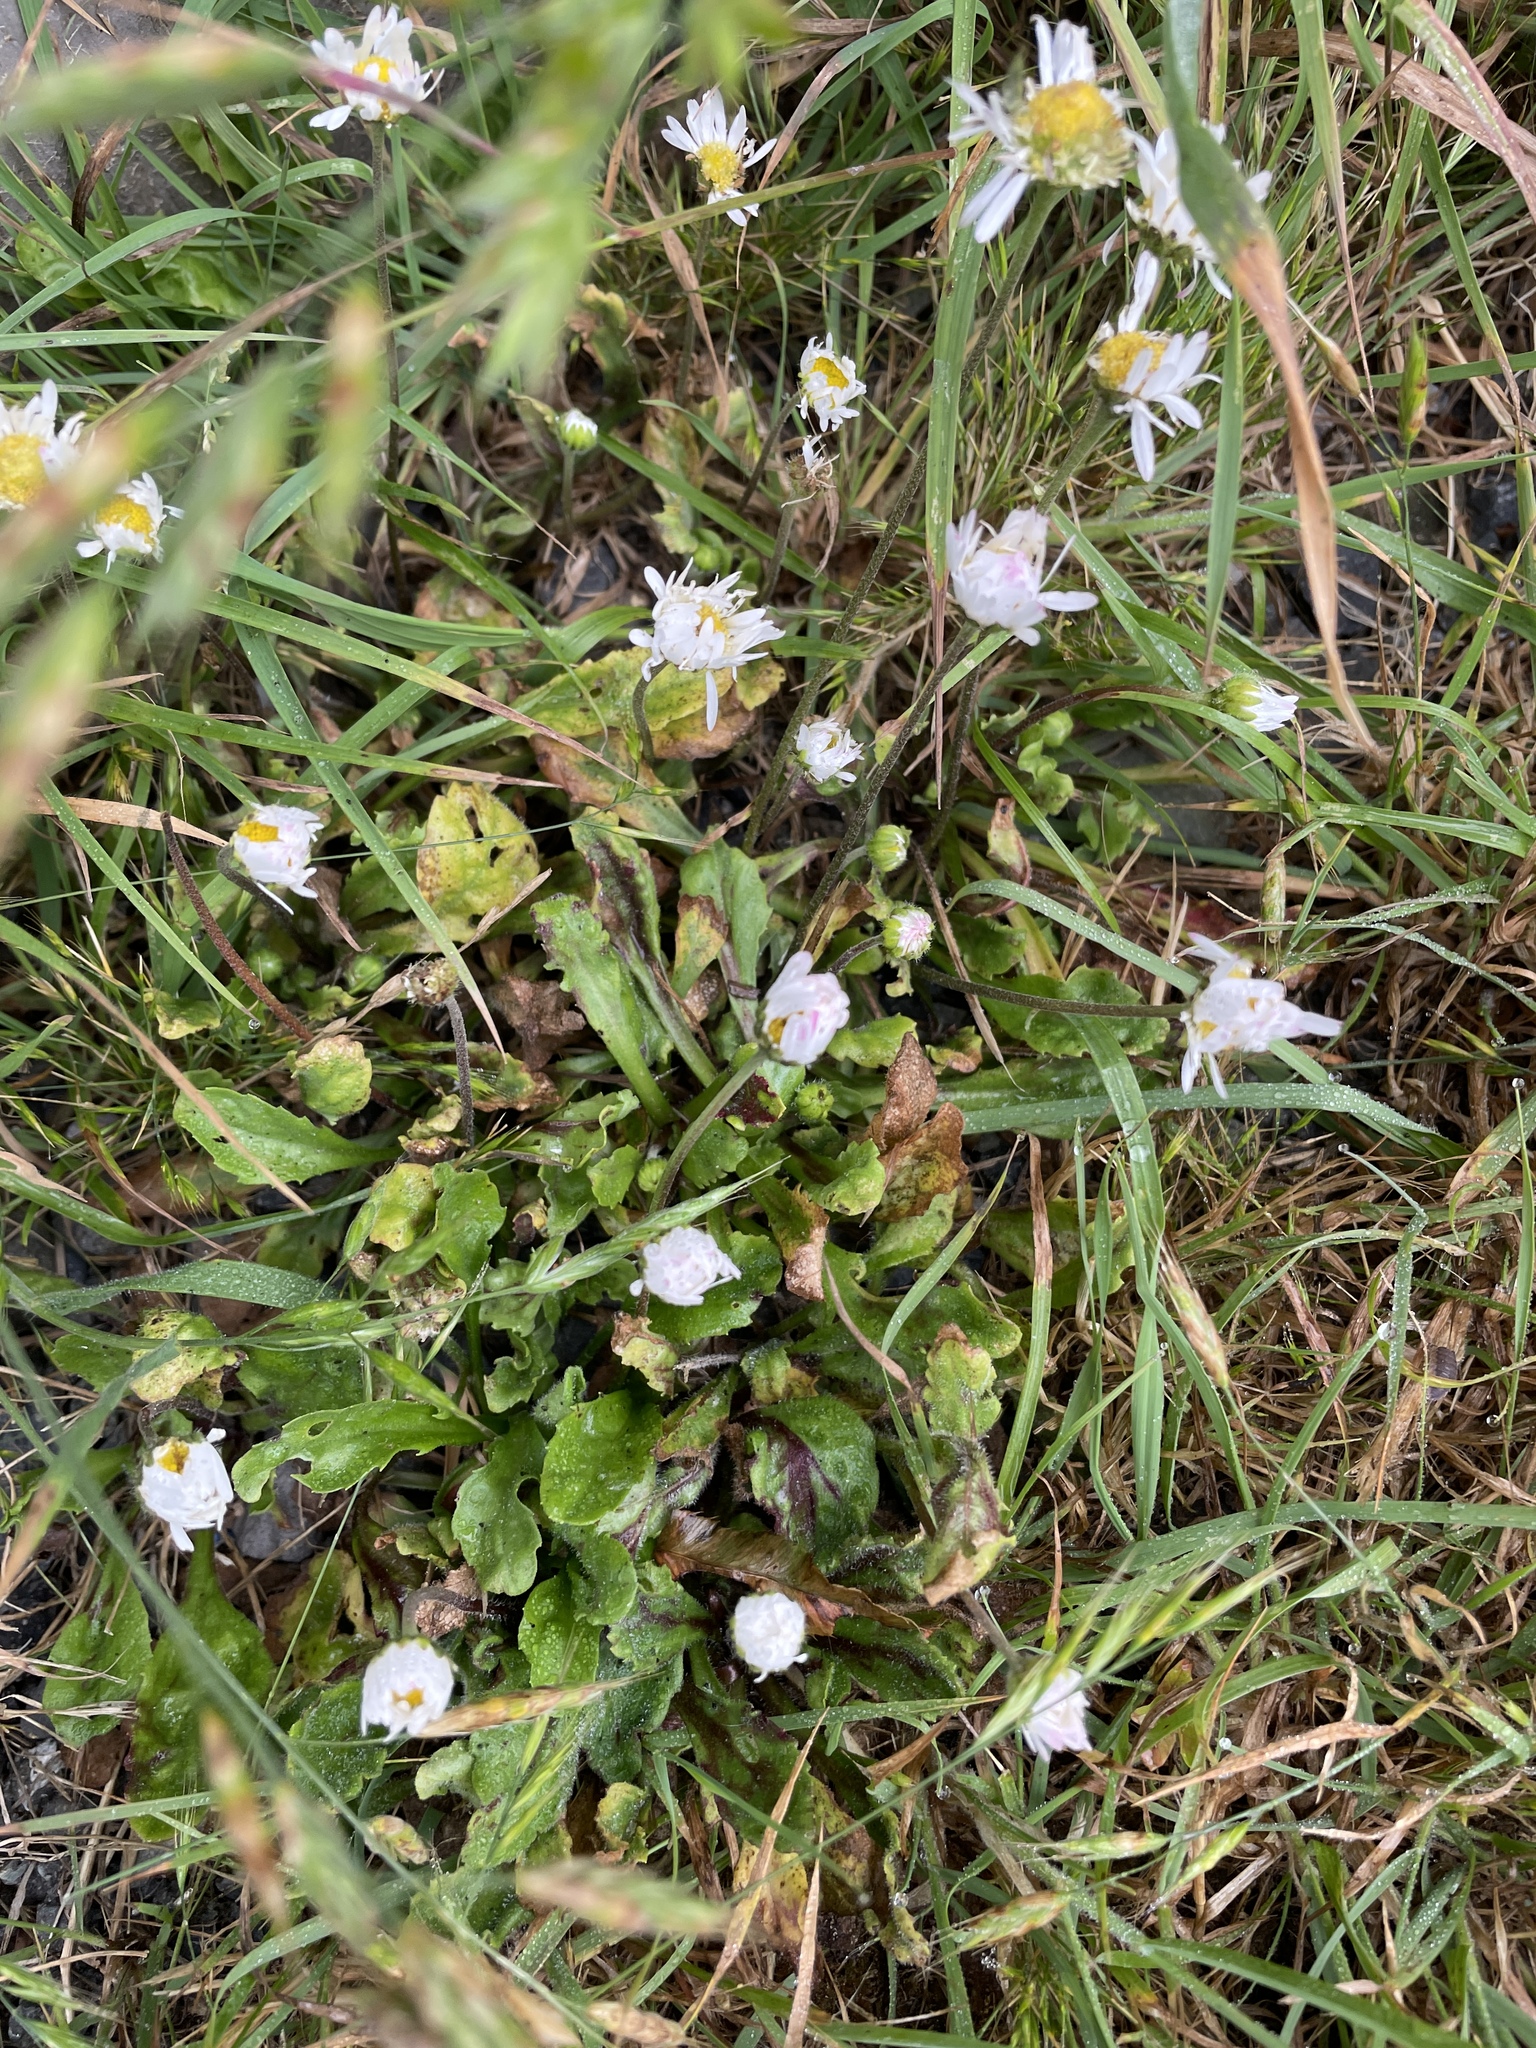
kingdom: Plantae
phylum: Tracheophyta
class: Magnoliopsida
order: Asterales
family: Asteraceae
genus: Bellis
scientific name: Bellis perennis
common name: Lawndaisy
